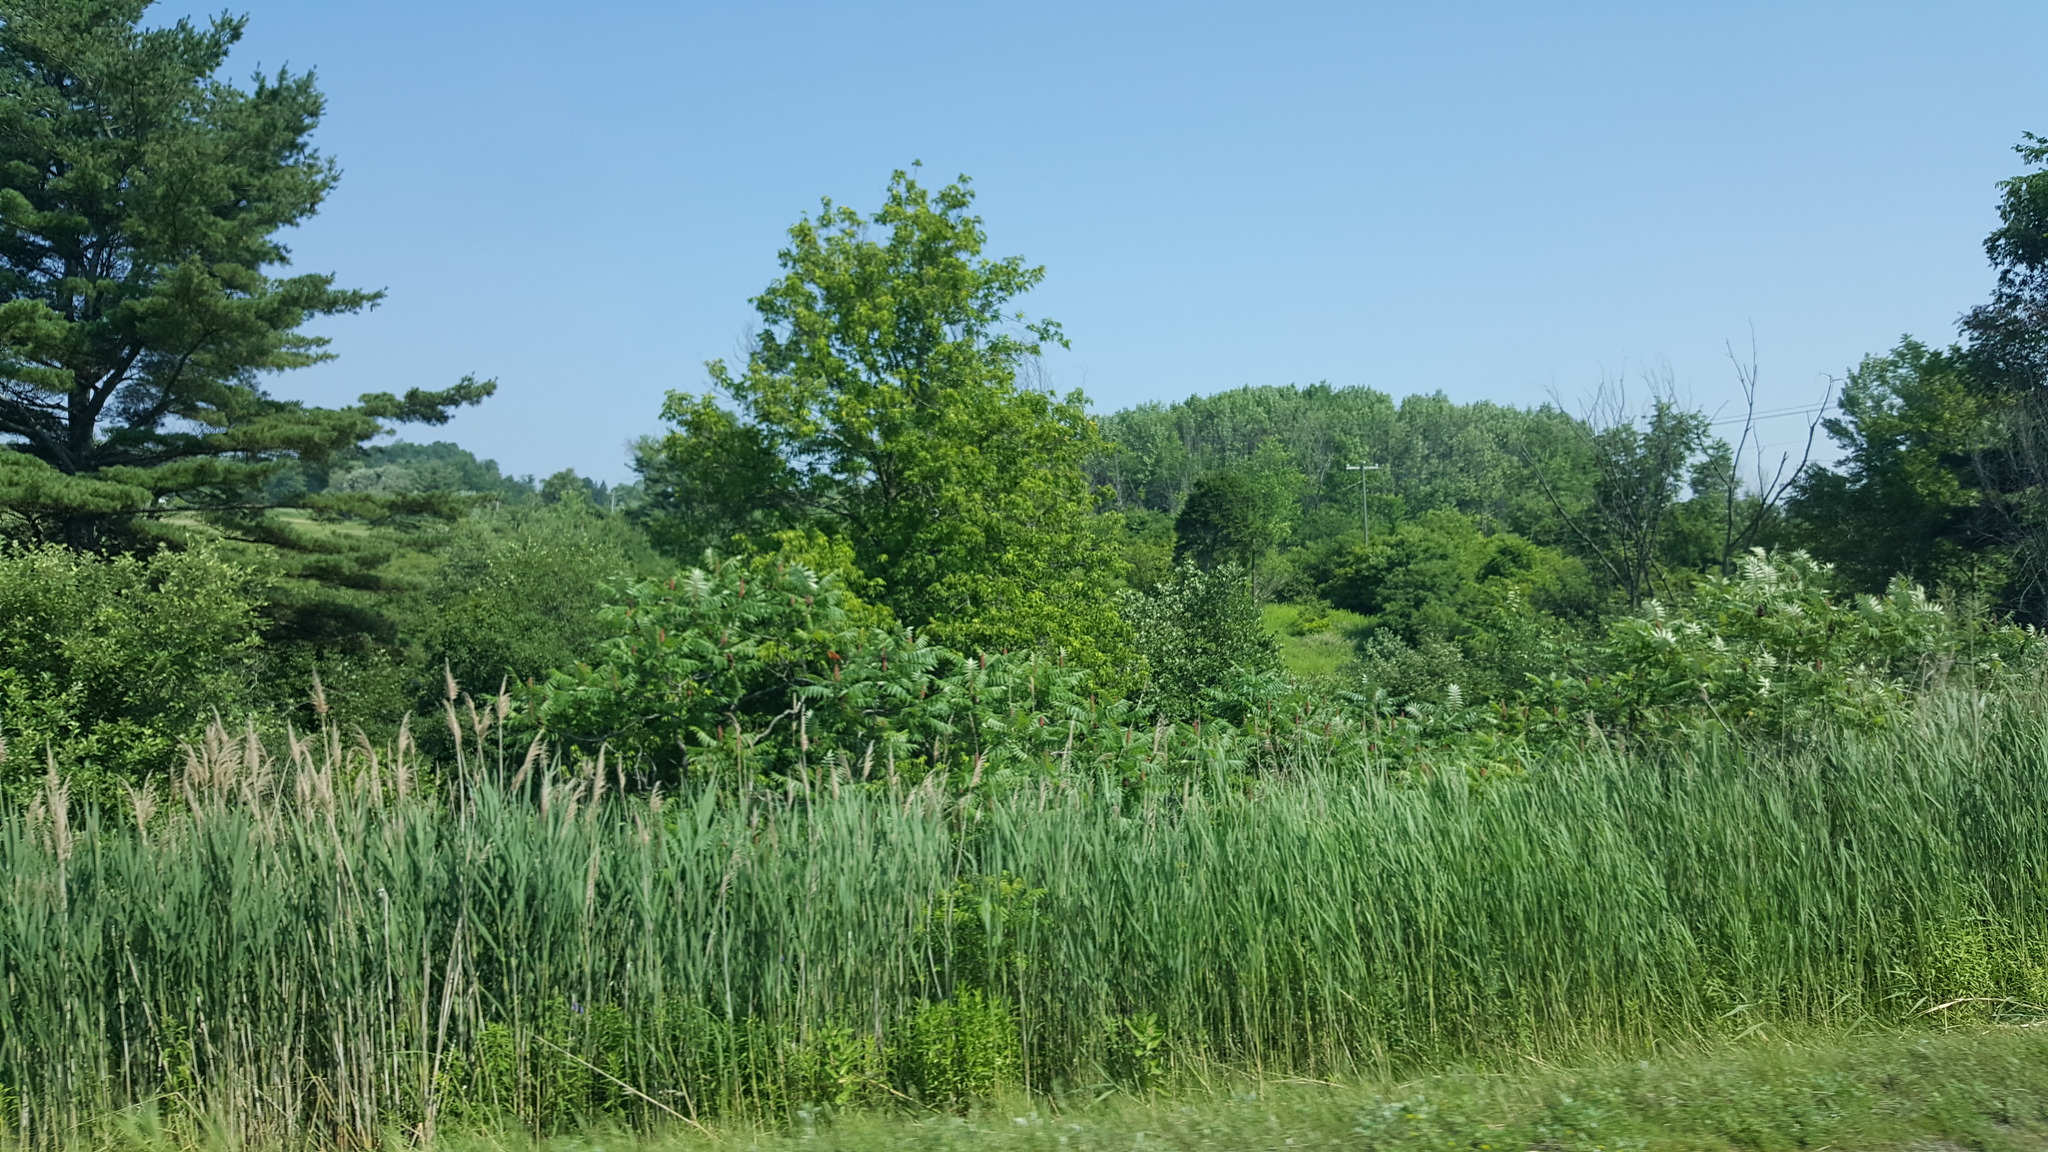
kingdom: Plantae
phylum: Tracheophyta
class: Liliopsida
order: Poales
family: Poaceae
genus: Phragmites
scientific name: Phragmites australis
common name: Common reed
